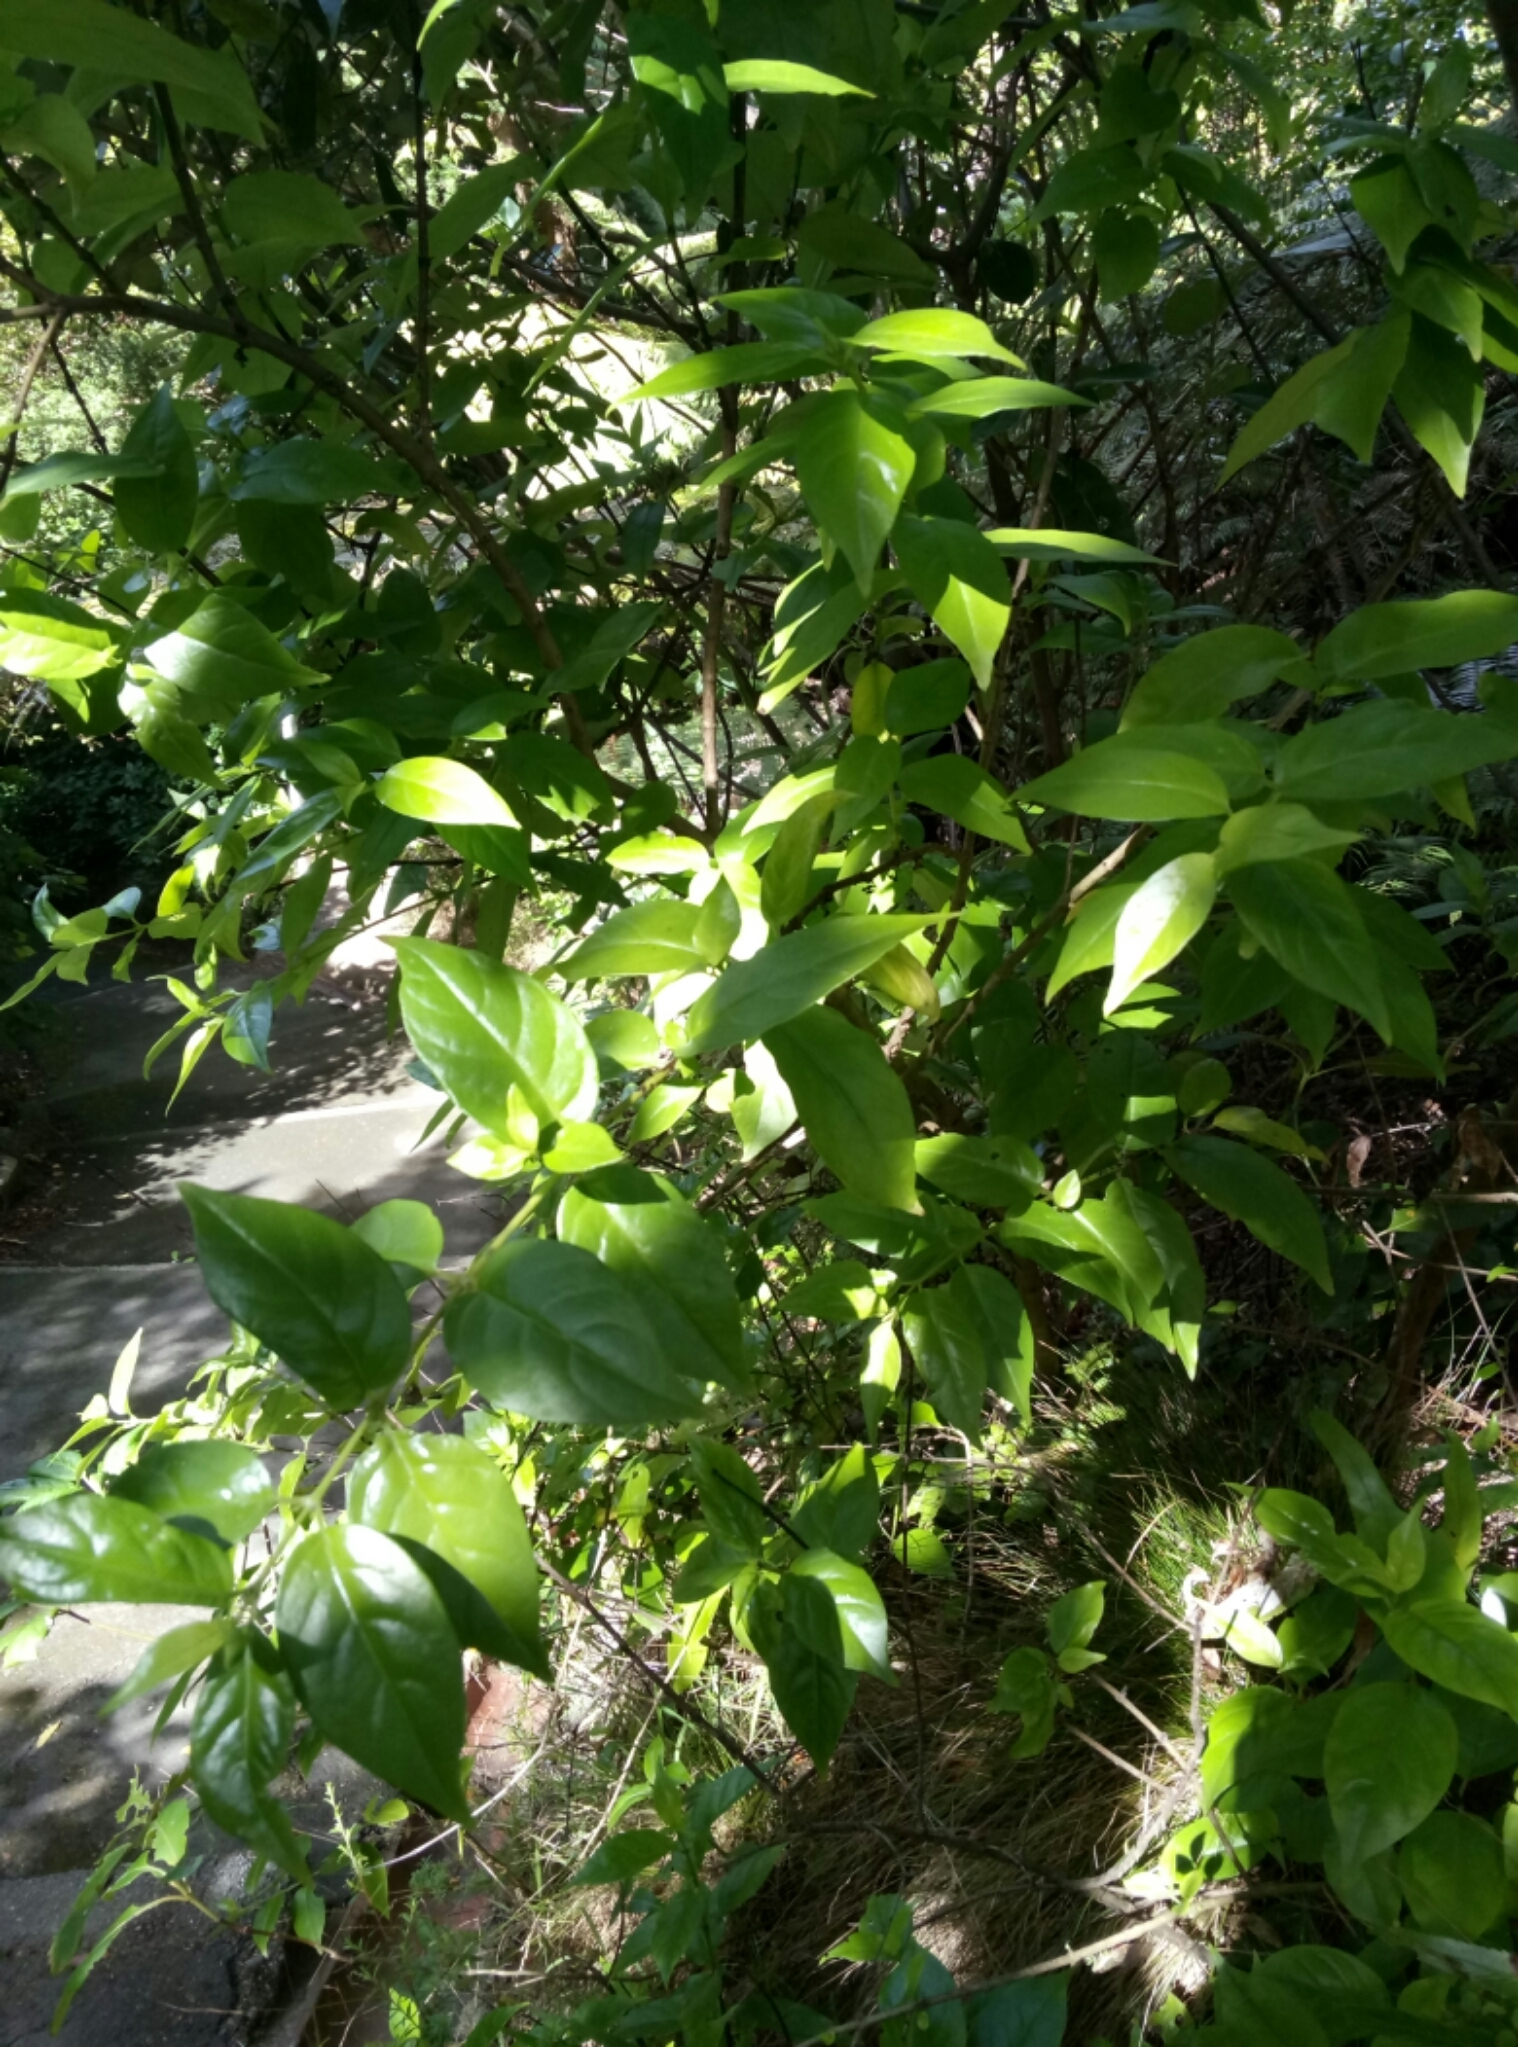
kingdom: Plantae
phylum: Tracheophyta
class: Magnoliopsida
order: Gentianales
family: Loganiaceae
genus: Geniostoma
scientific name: Geniostoma ligustrifolium
